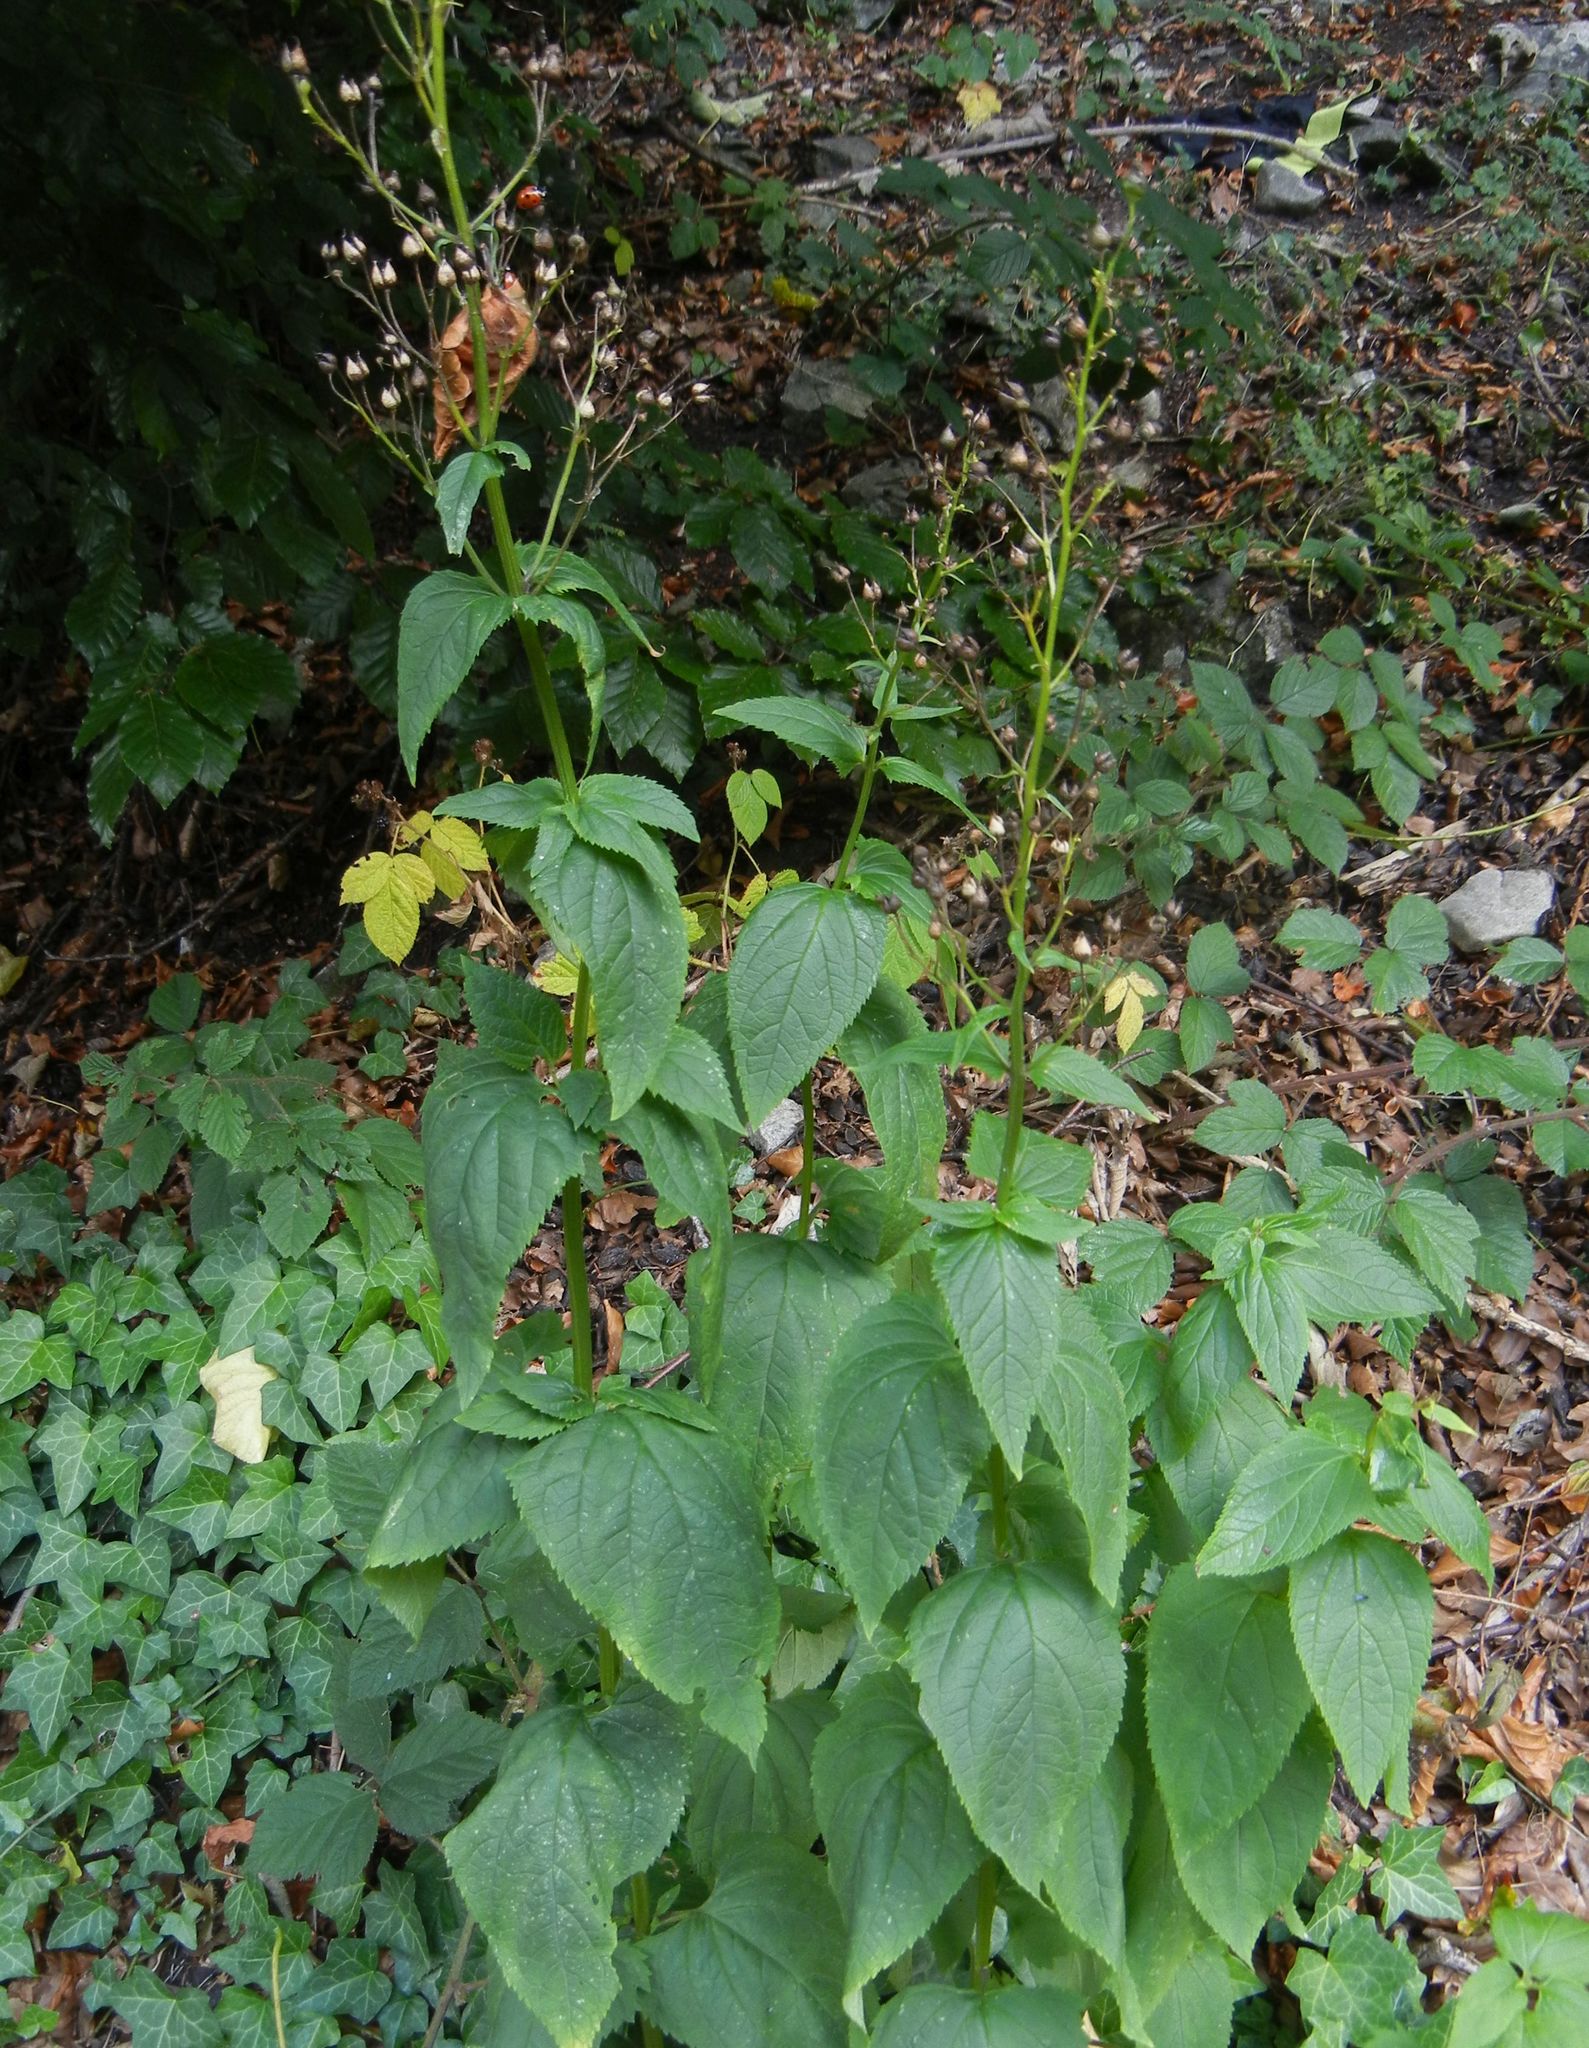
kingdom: Plantae
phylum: Tracheophyta
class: Magnoliopsida
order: Lamiales
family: Scrophulariaceae
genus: Scrophularia
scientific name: Scrophularia nodosa
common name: Common figwort
